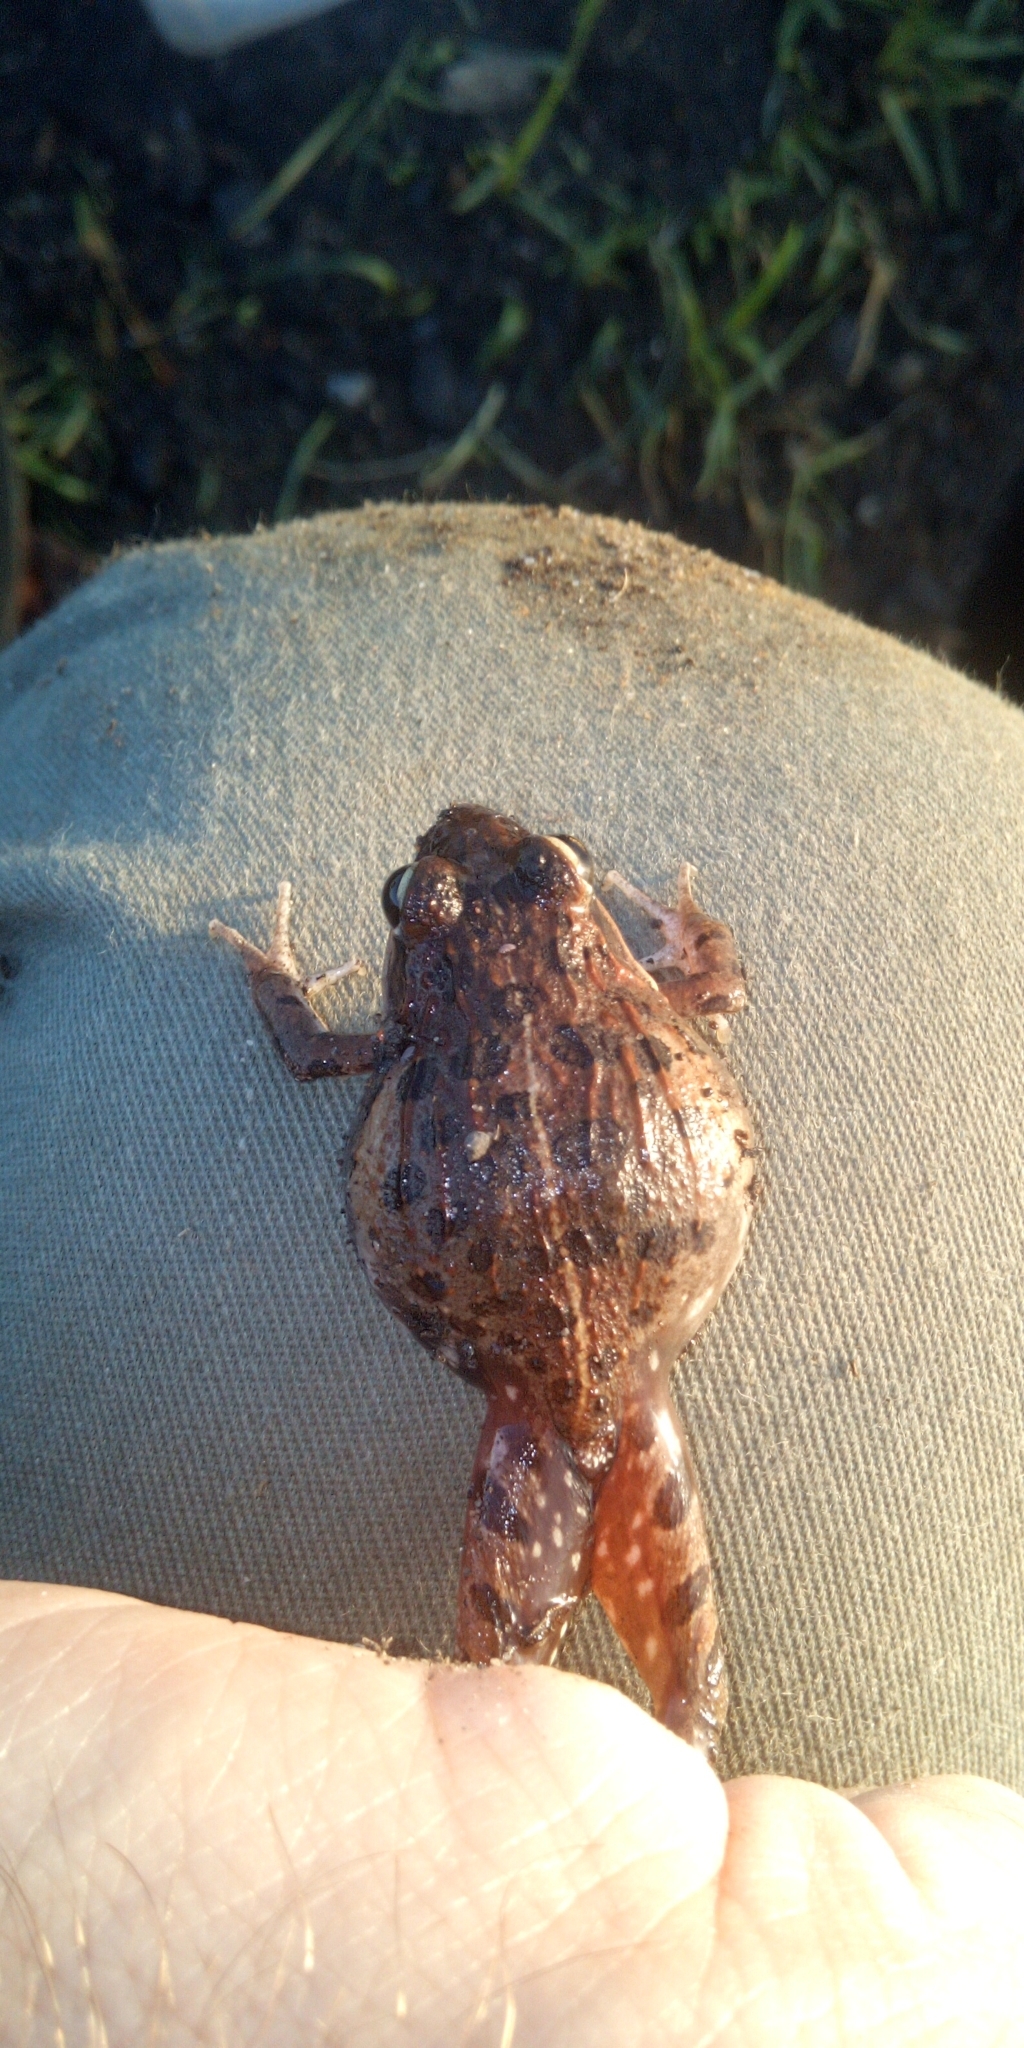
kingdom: Animalia
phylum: Chordata
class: Amphibia
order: Anura
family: Pyxicephalidae
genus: Strongylopus
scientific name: Strongylopus grayii
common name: Gray's stream frog
